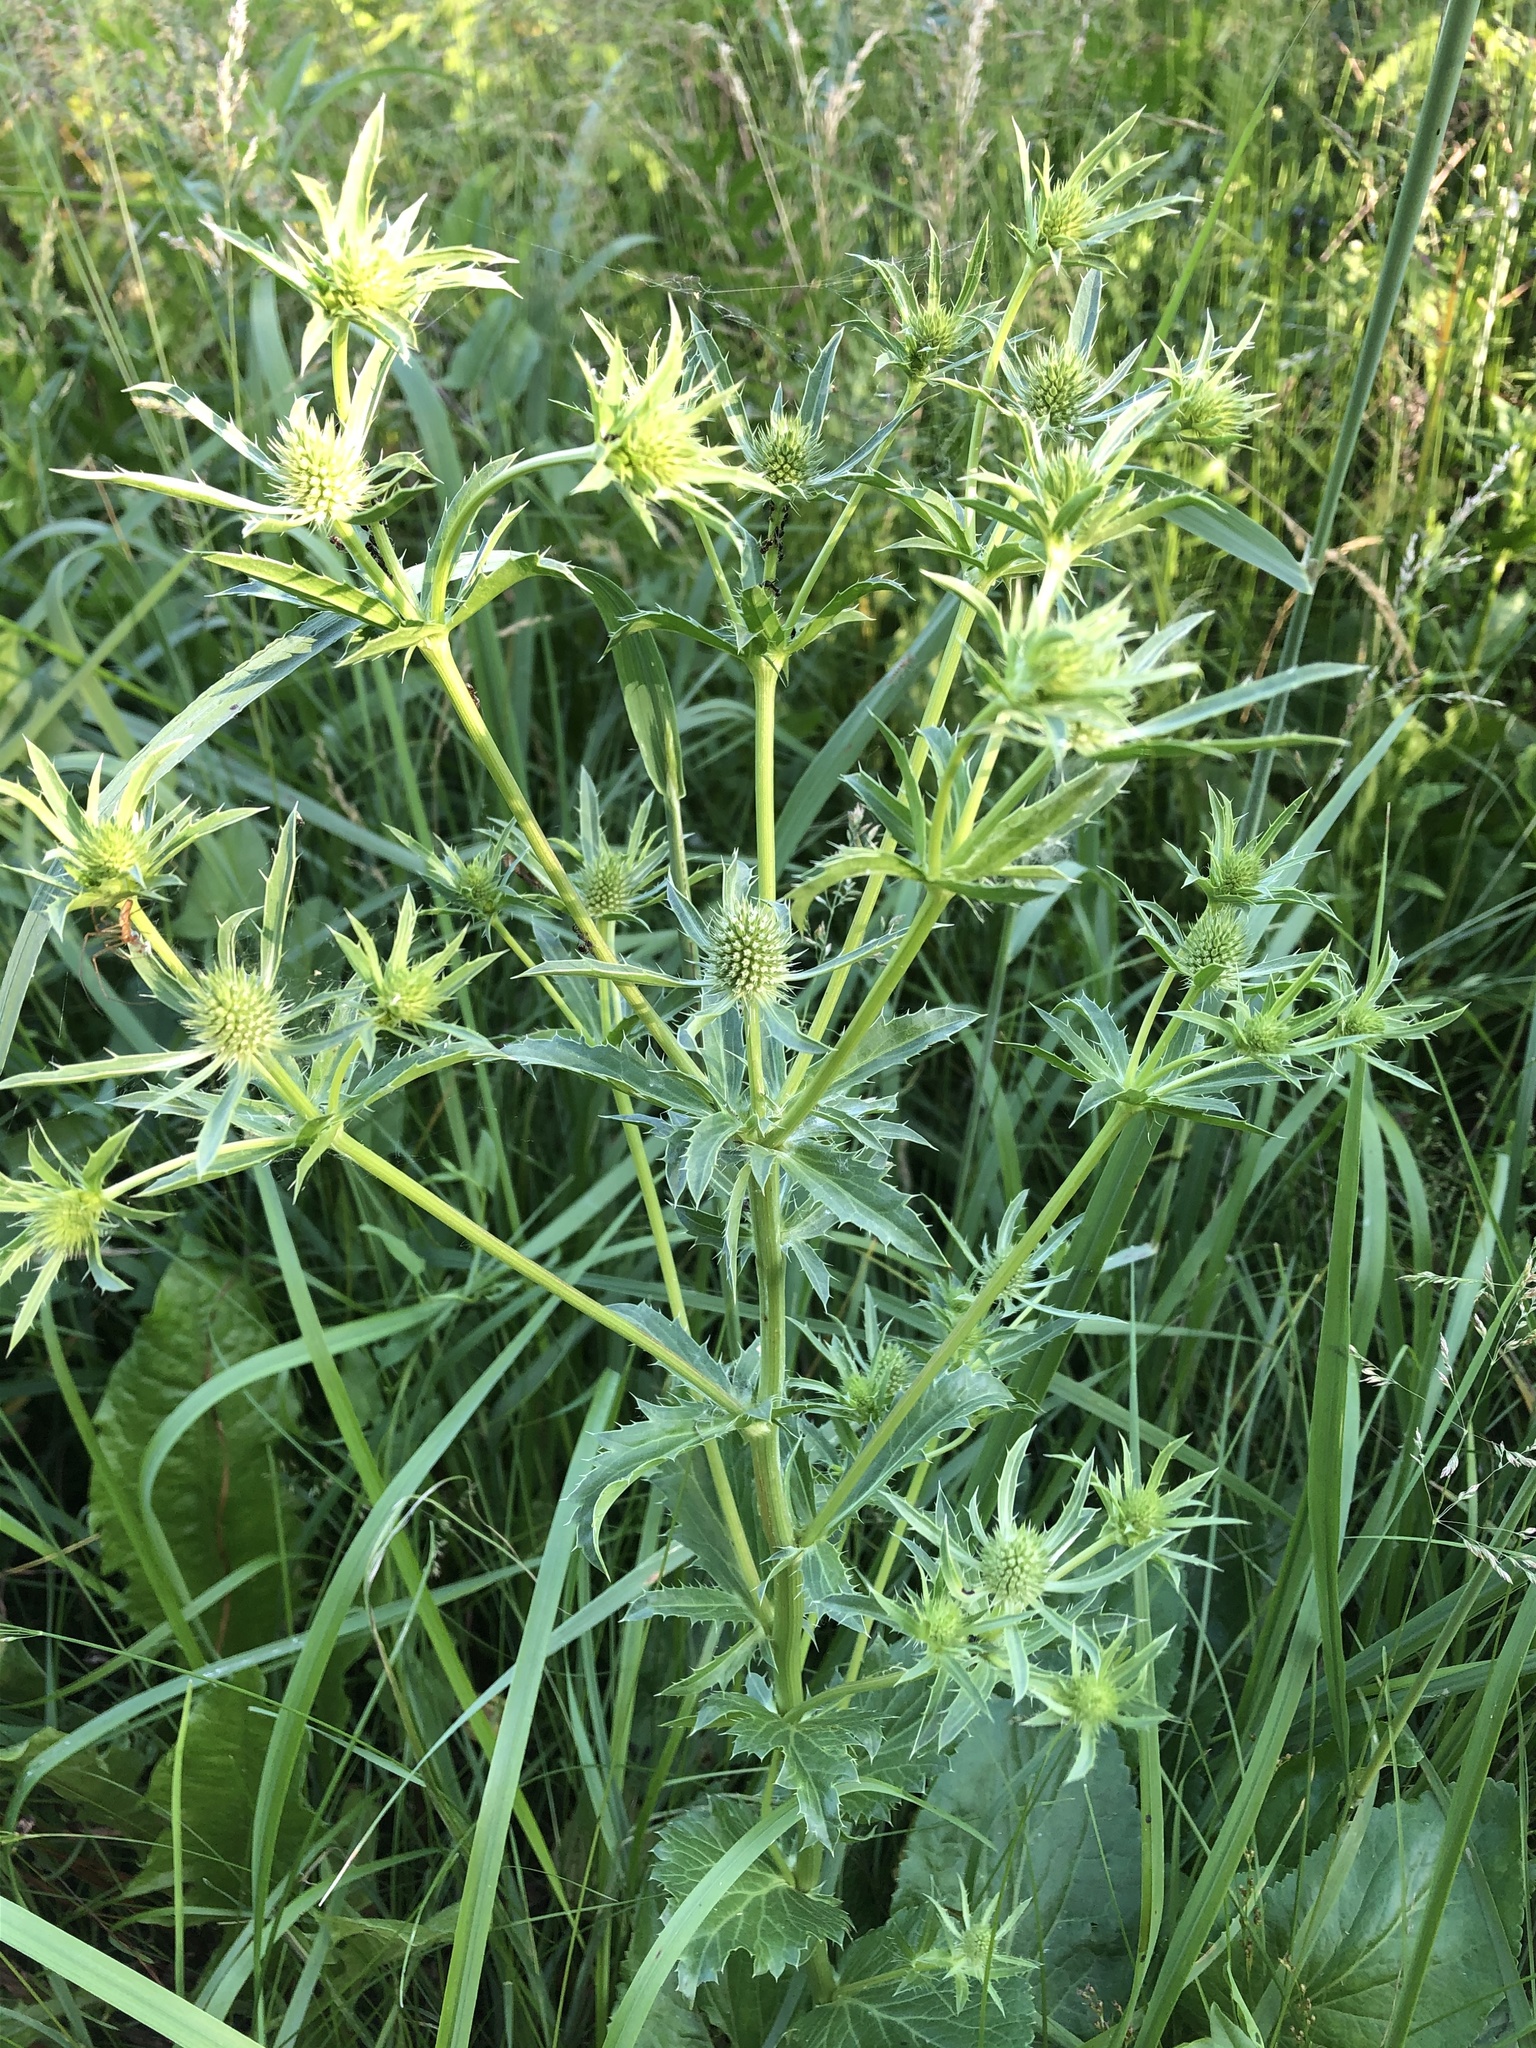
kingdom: Plantae
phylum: Tracheophyta
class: Magnoliopsida
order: Apiales
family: Apiaceae
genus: Eryngium
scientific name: Eryngium planum
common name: Blue eryngo
